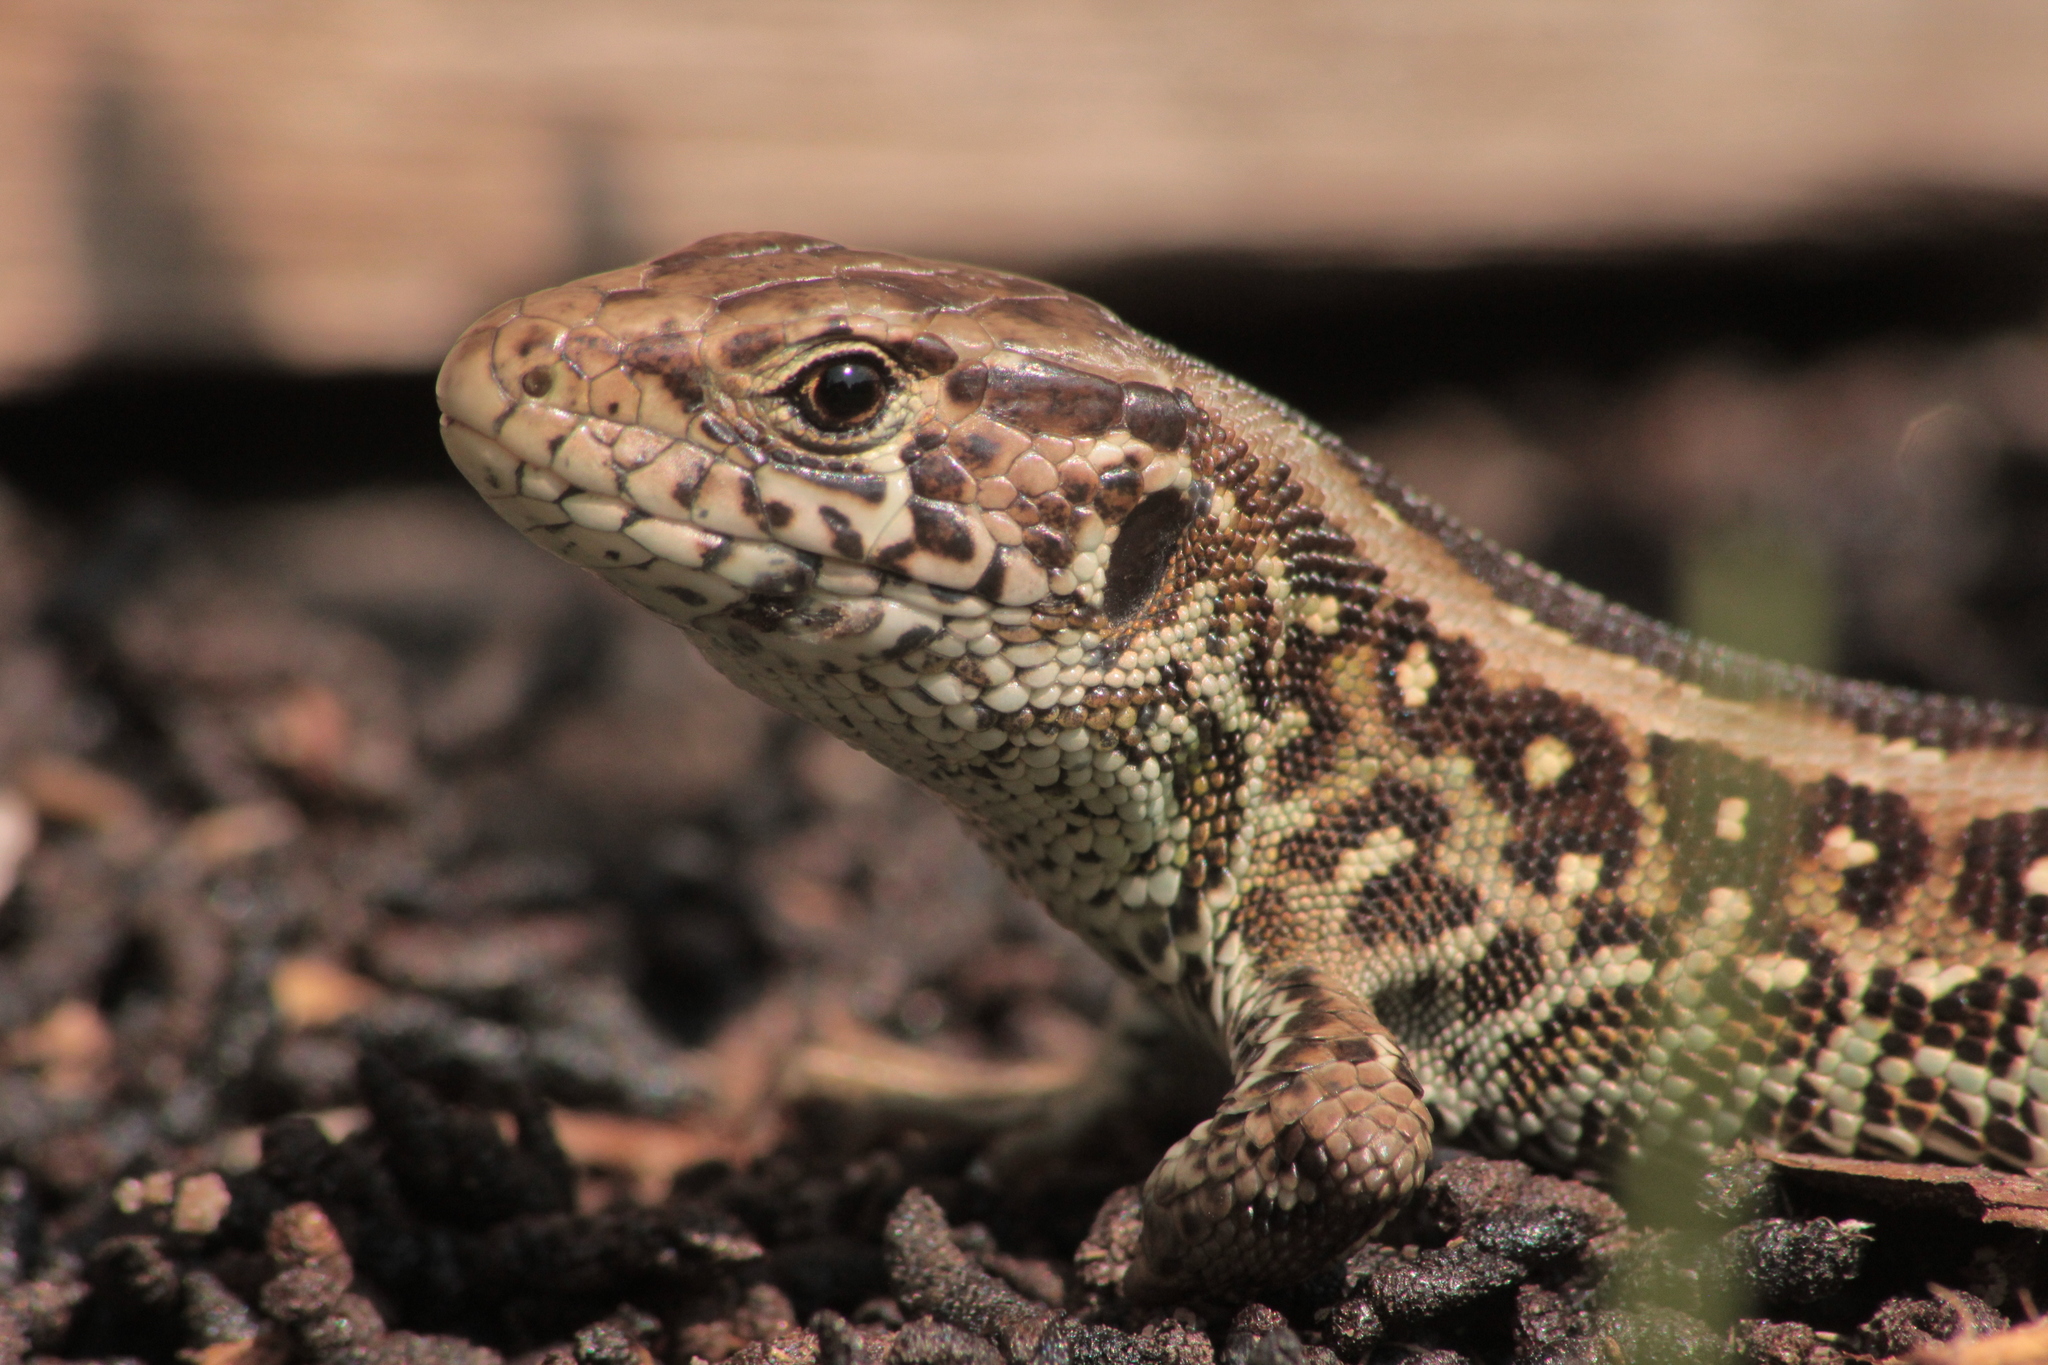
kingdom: Animalia
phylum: Chordata
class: Squamata
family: Lacertidae
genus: Lacerta
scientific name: Lacerta agilis
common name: Sand lizard
